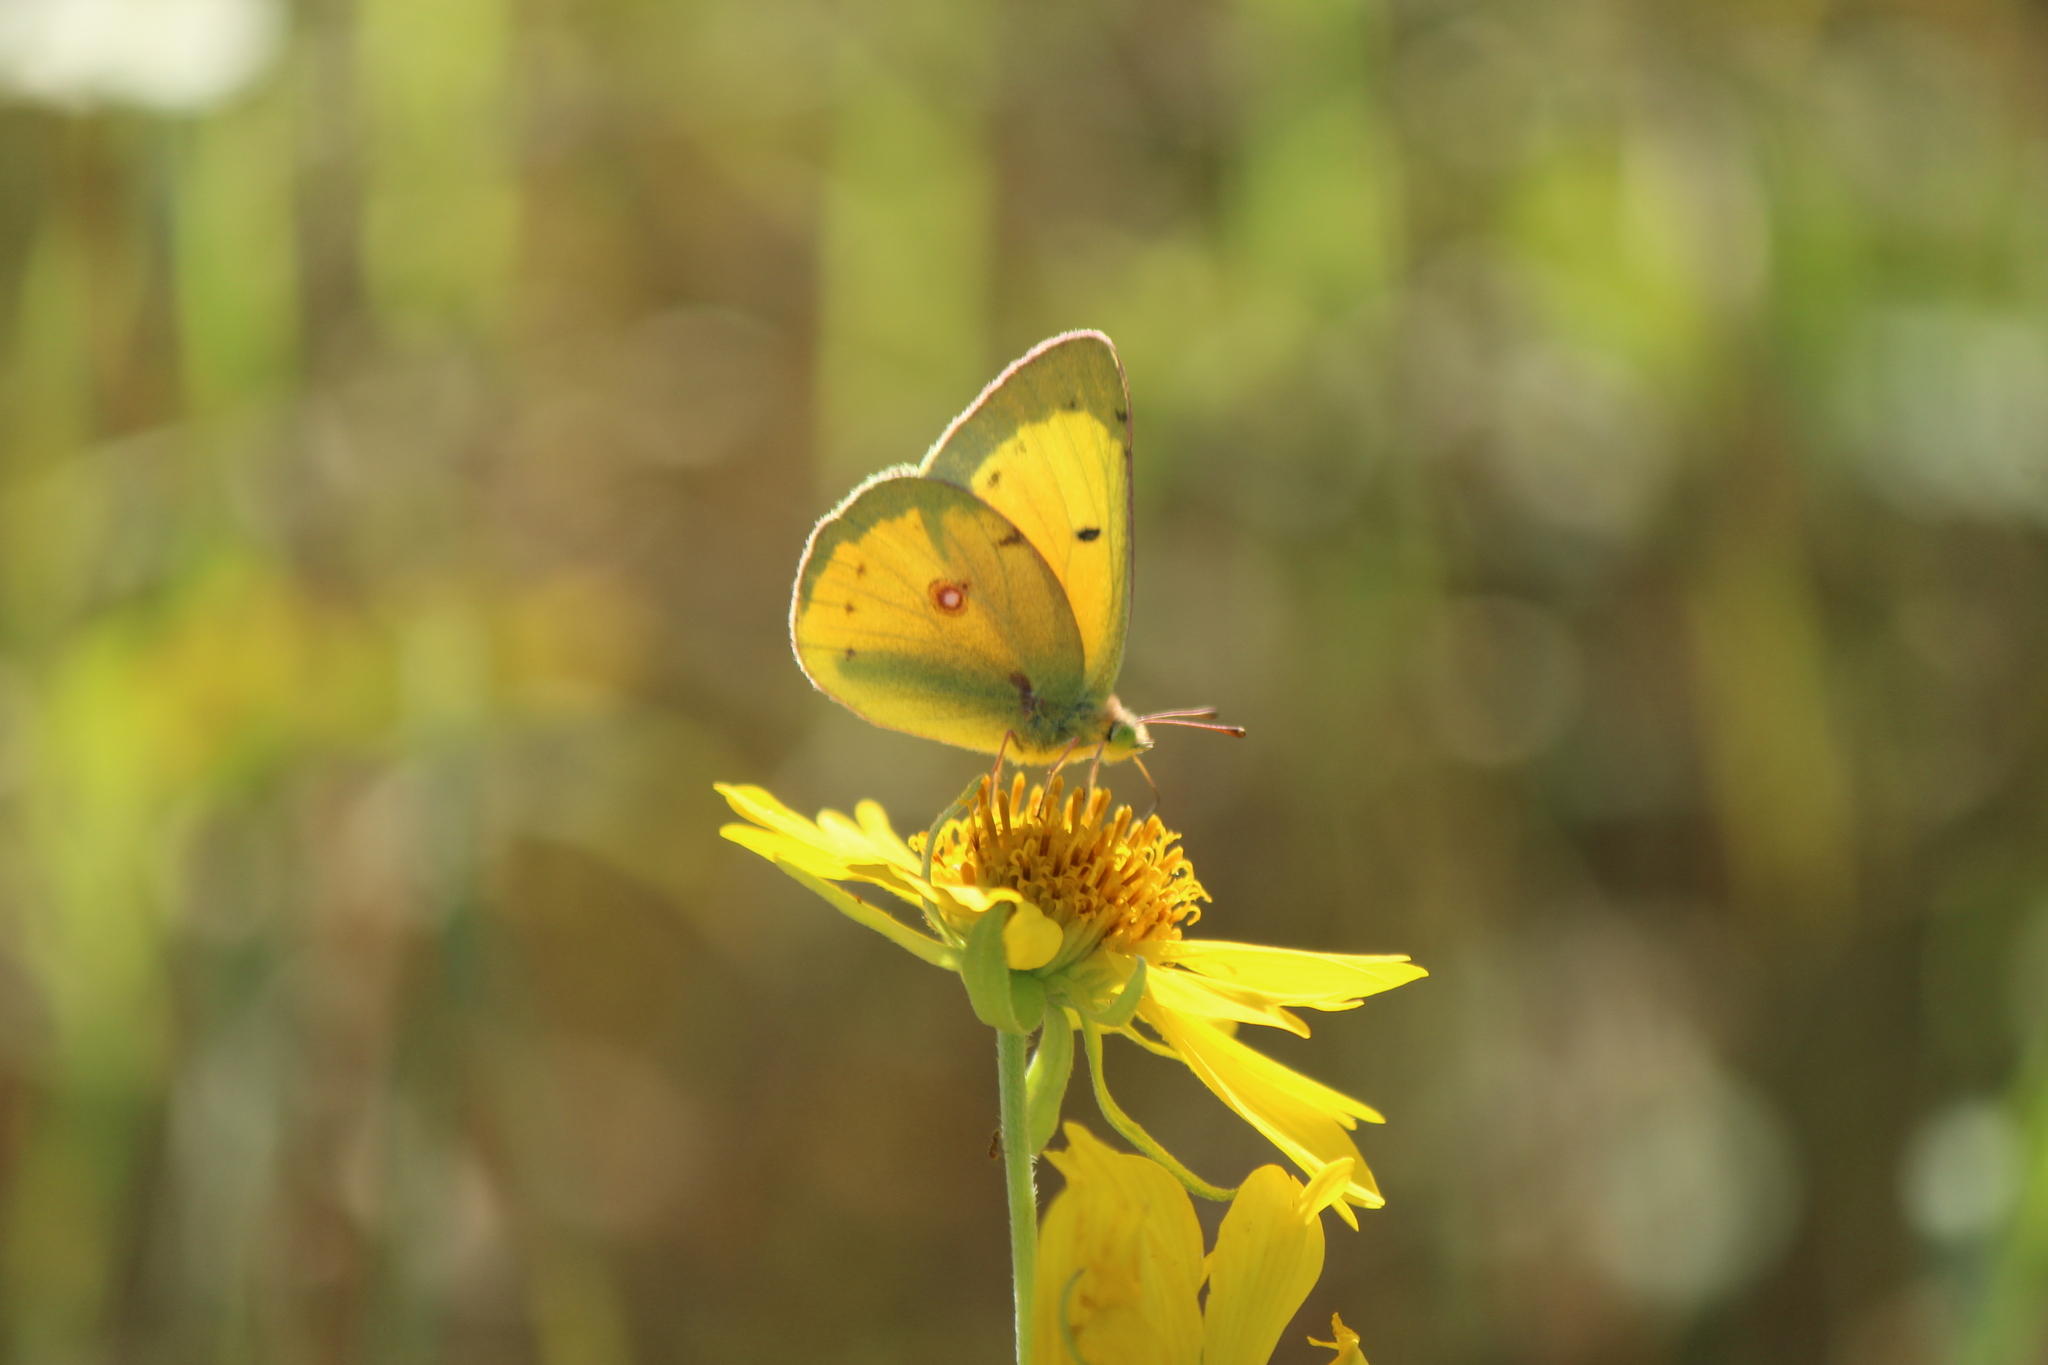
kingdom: Animalia
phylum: Arthropoda
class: Insecta
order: Lepidoptera
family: Pieridae
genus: Colias
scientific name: Colias eurytheme
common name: Alfalfa butterfly
